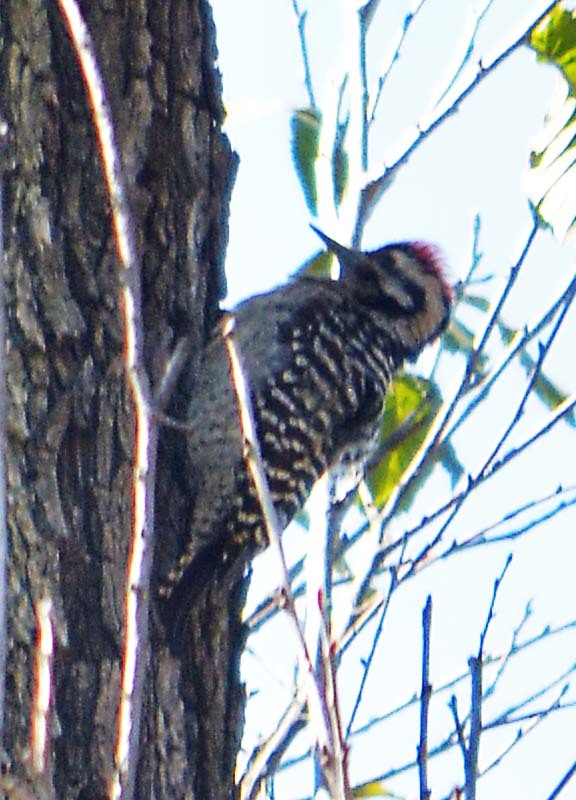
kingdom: Animalia
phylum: Chordata
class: Aves
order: Piciformes
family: Picidae
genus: Dryobates
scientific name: Dryobates scalaris
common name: Ladder-backed woodpecker
